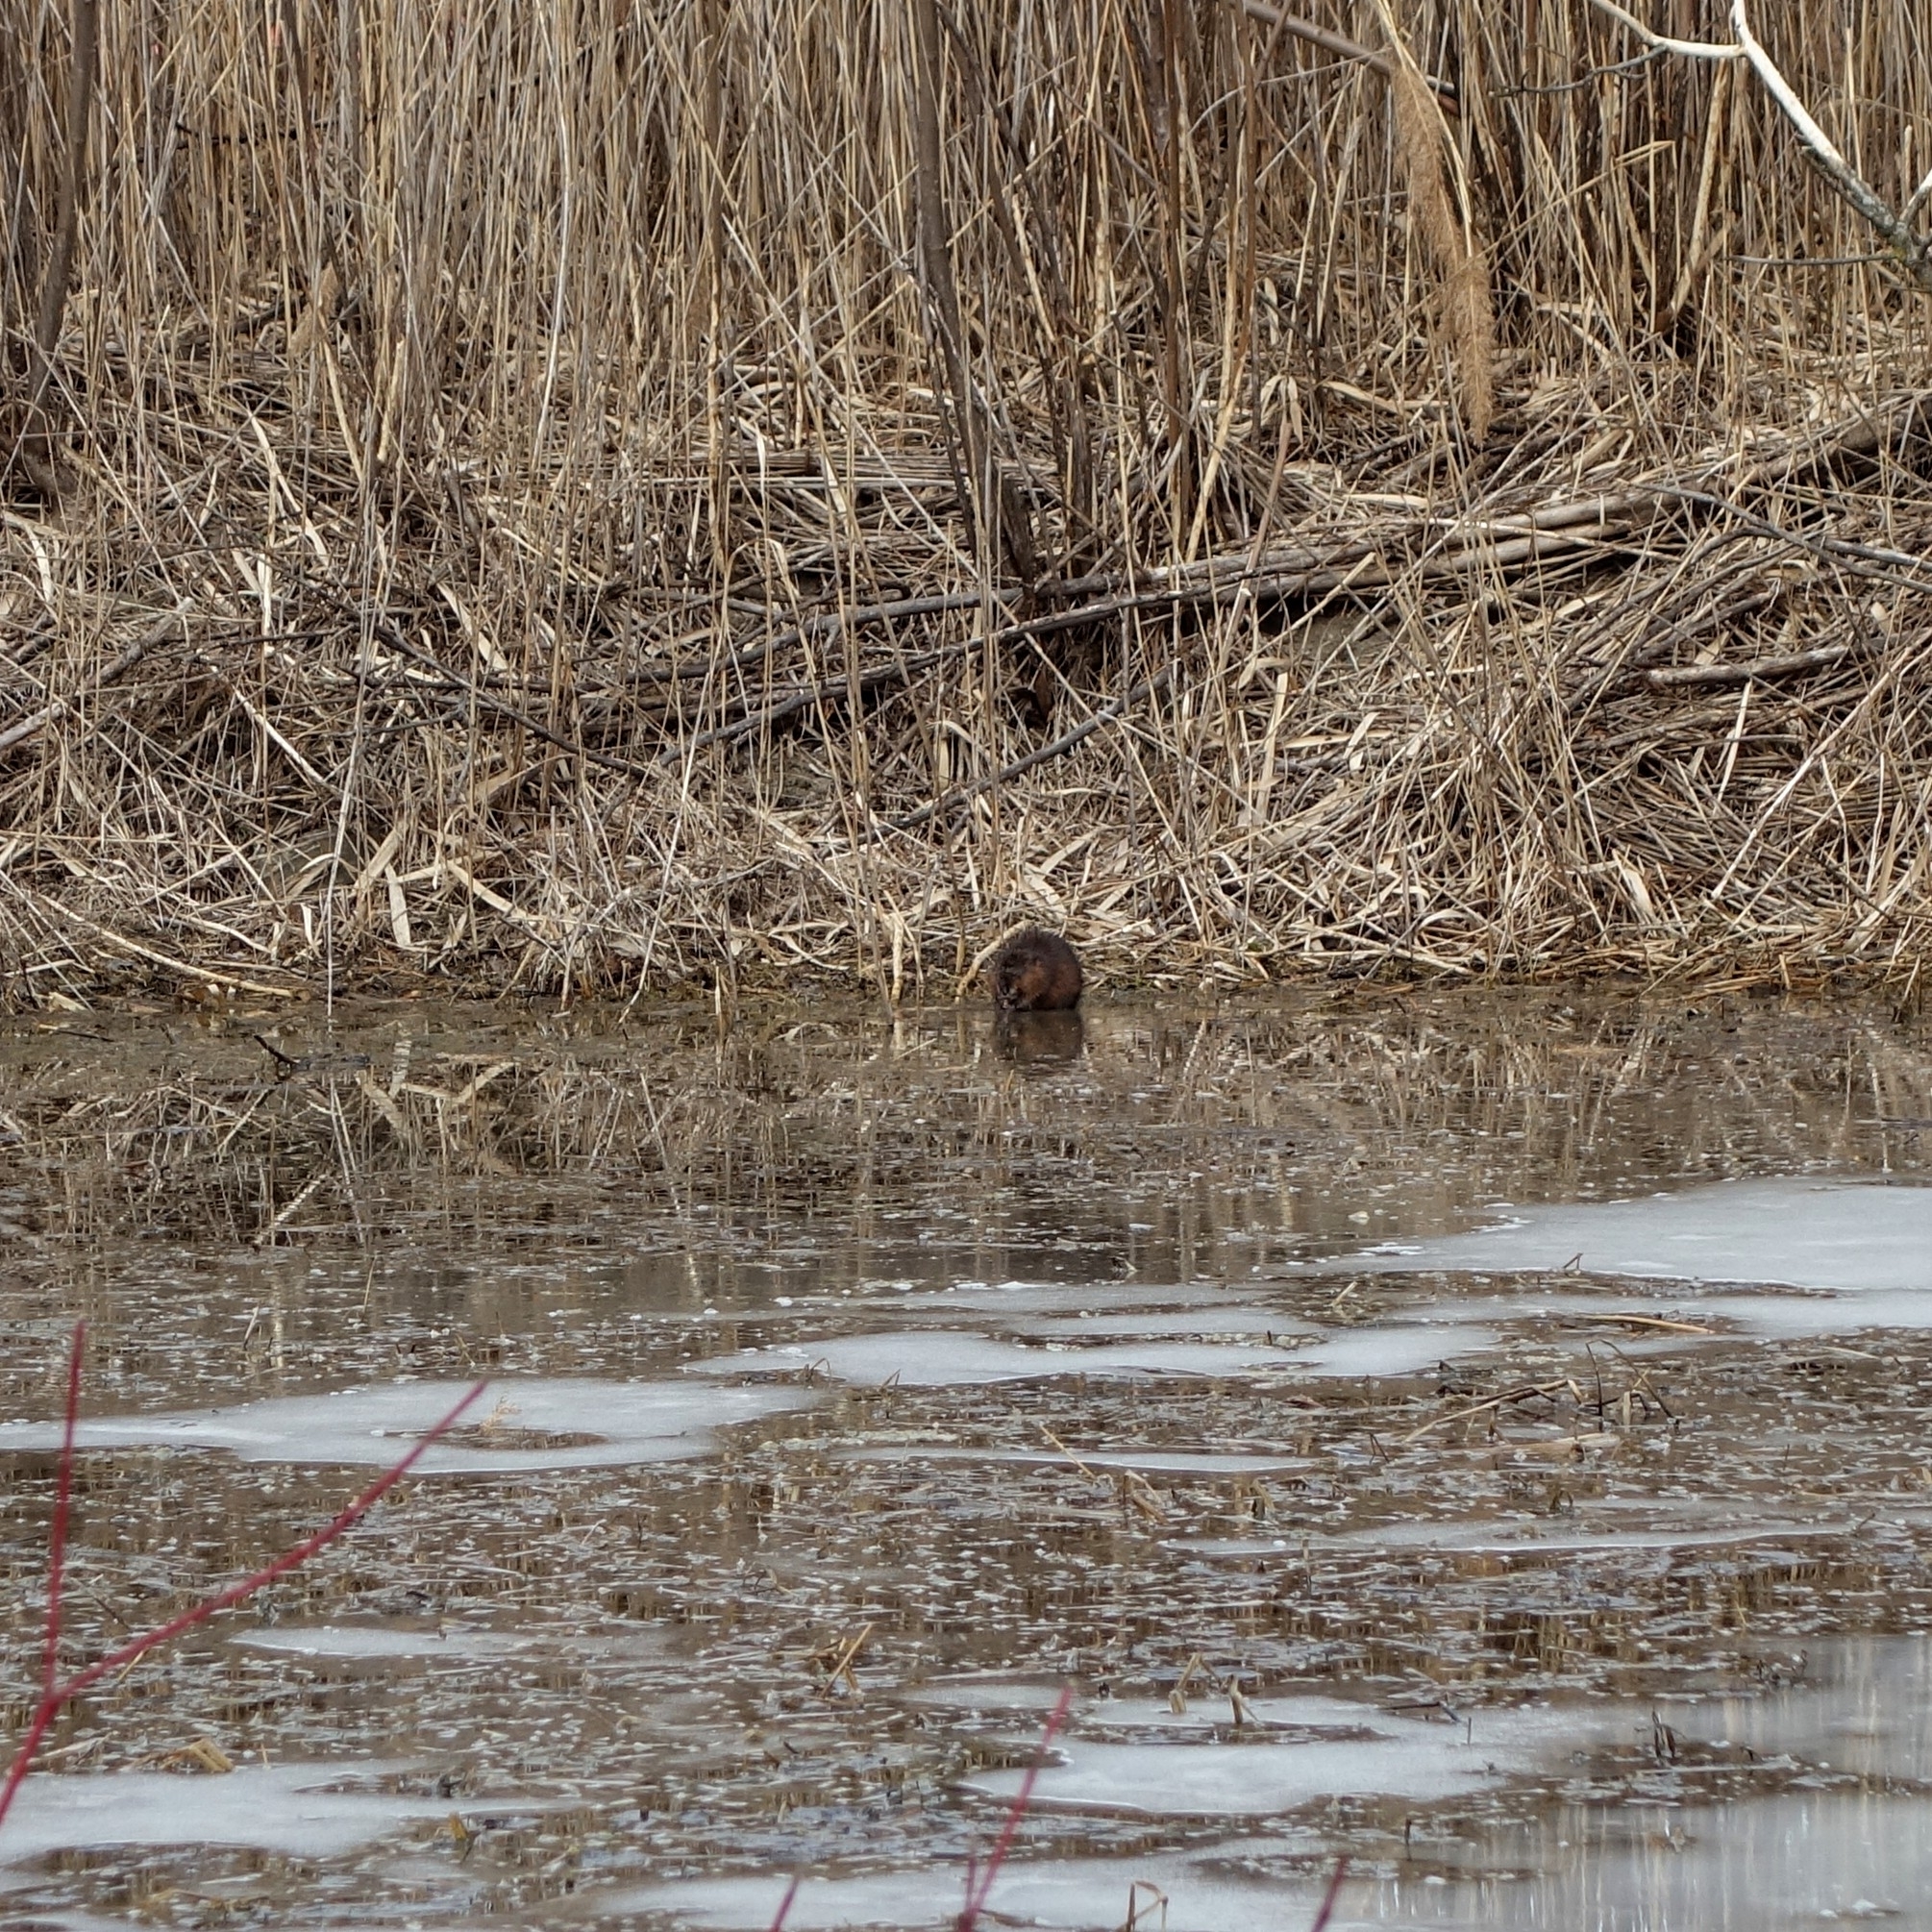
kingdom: Animalia
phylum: Chordata
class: Mammalia
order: Rodentia
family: Cricetidae
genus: Ondatra
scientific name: Ondatra zibethicus
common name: Muskrat
